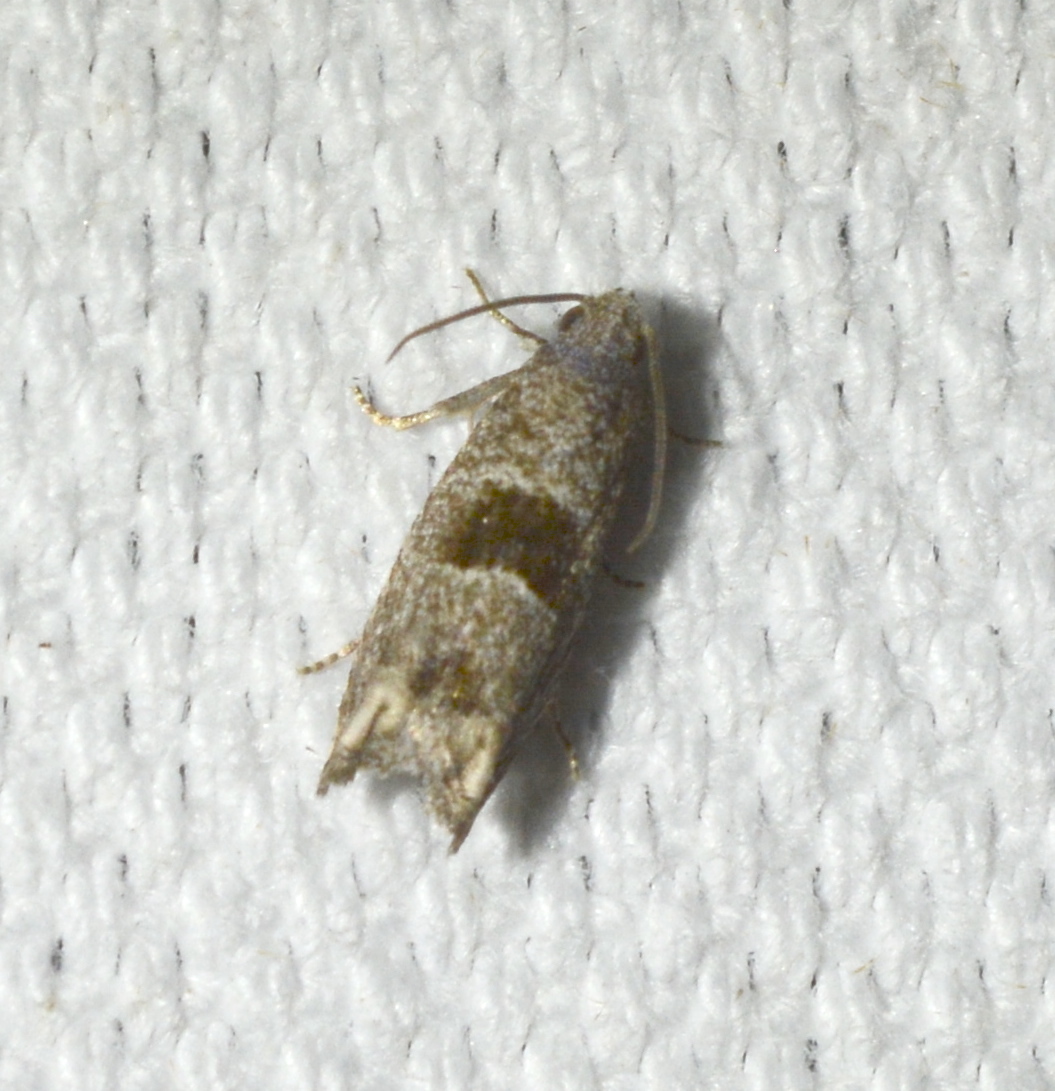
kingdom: Animalia
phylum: Arthropoda
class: Insecta
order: Lepidoptera
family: Tortricidae
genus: Suleima
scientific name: Suleima helianthana
